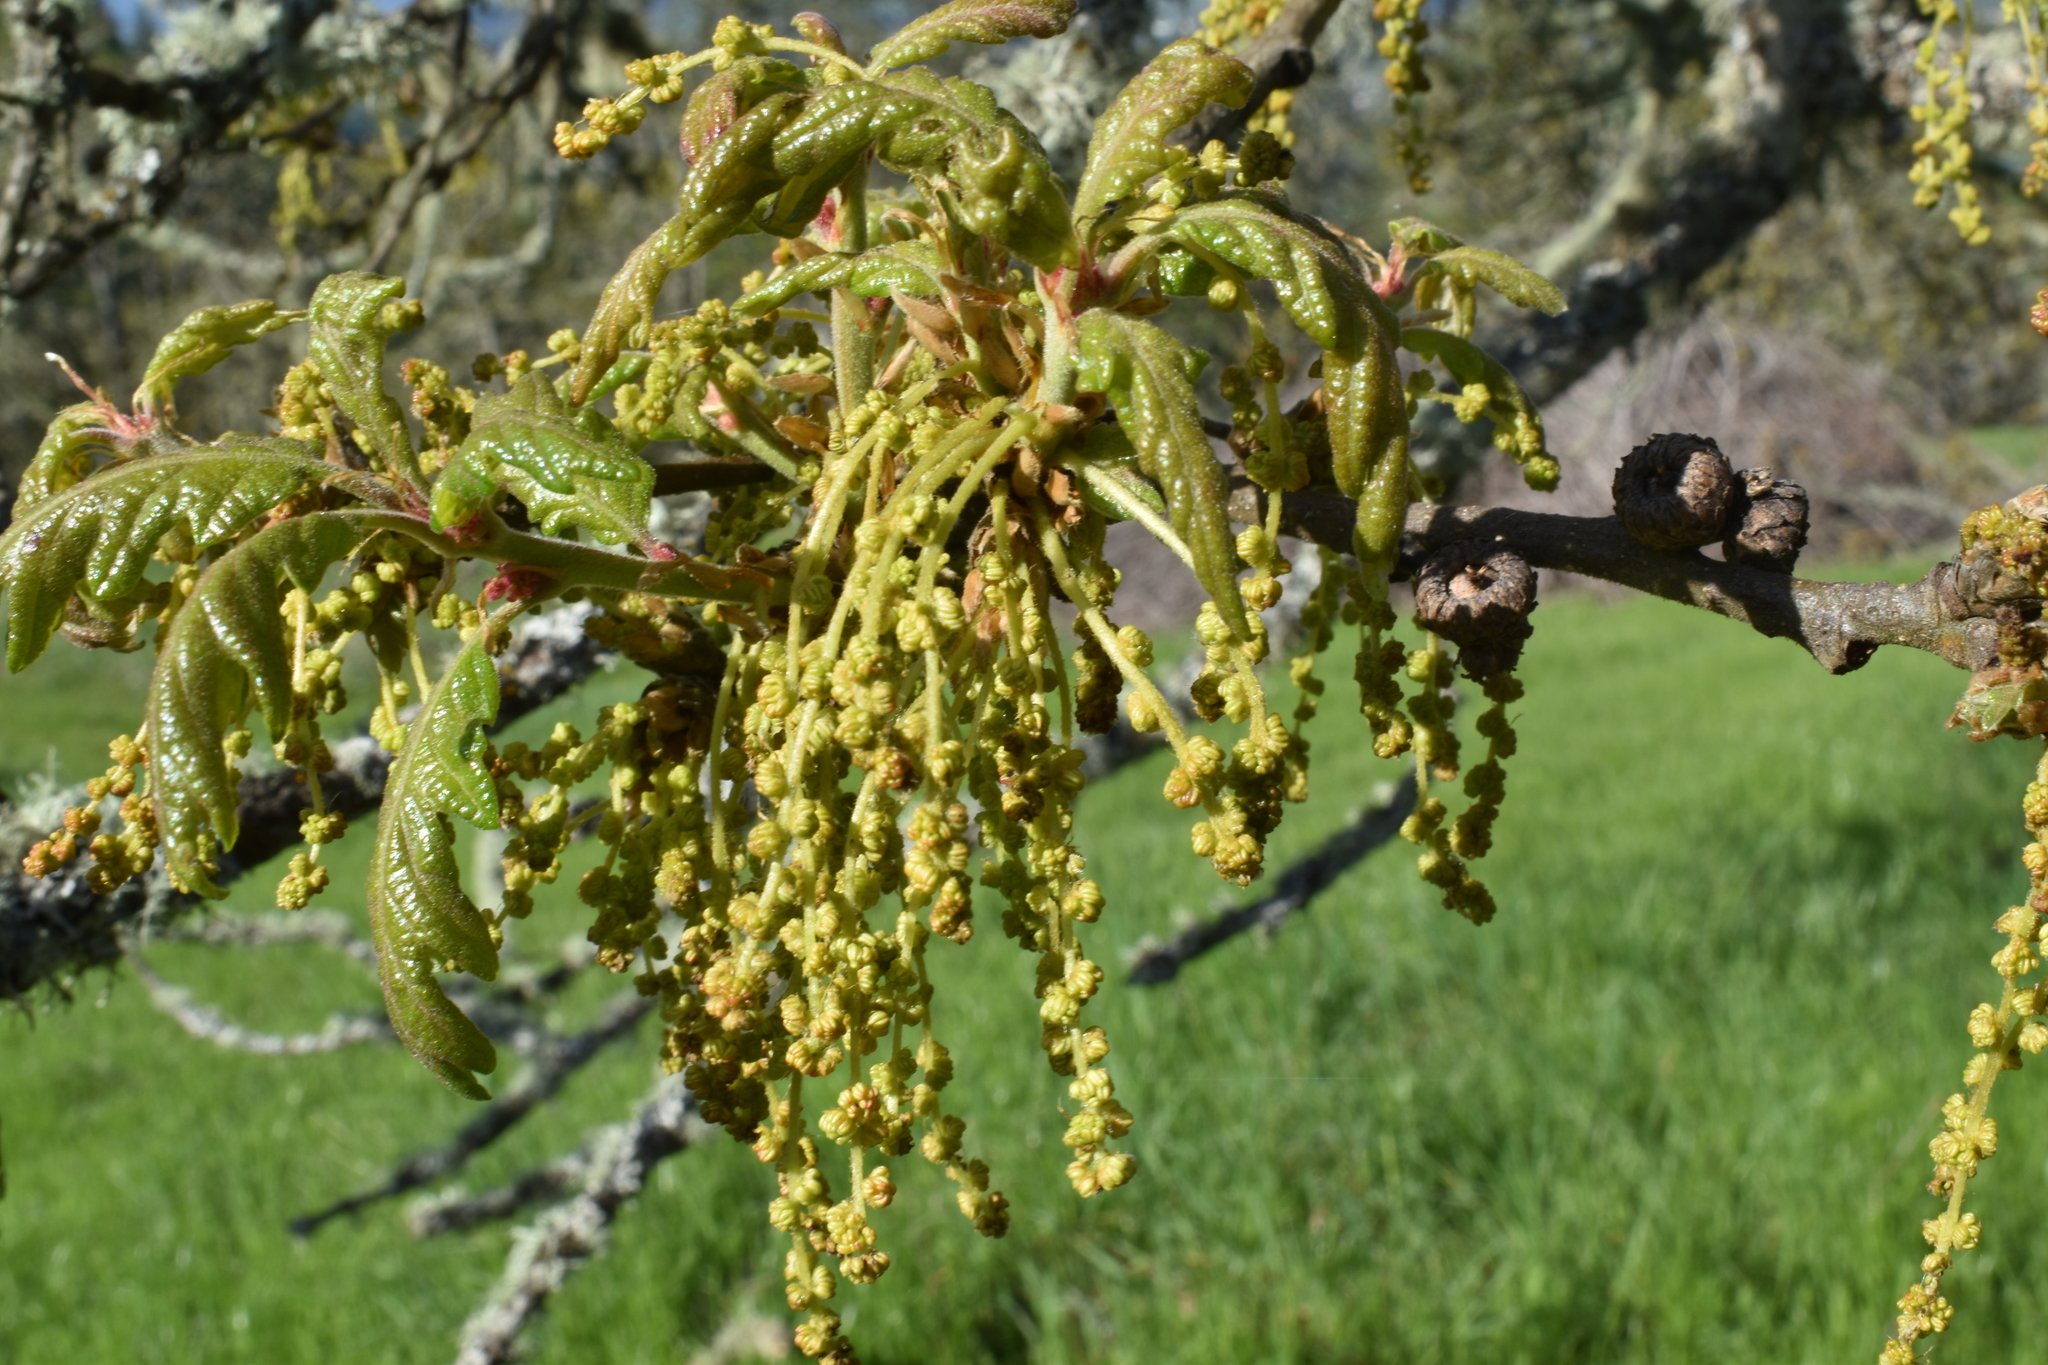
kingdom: Plantae
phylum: Tracheophyta
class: Magnoliopsida
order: Fagales
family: Fagaceae
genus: Quercus
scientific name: Quercus garryana
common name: Garry oak
